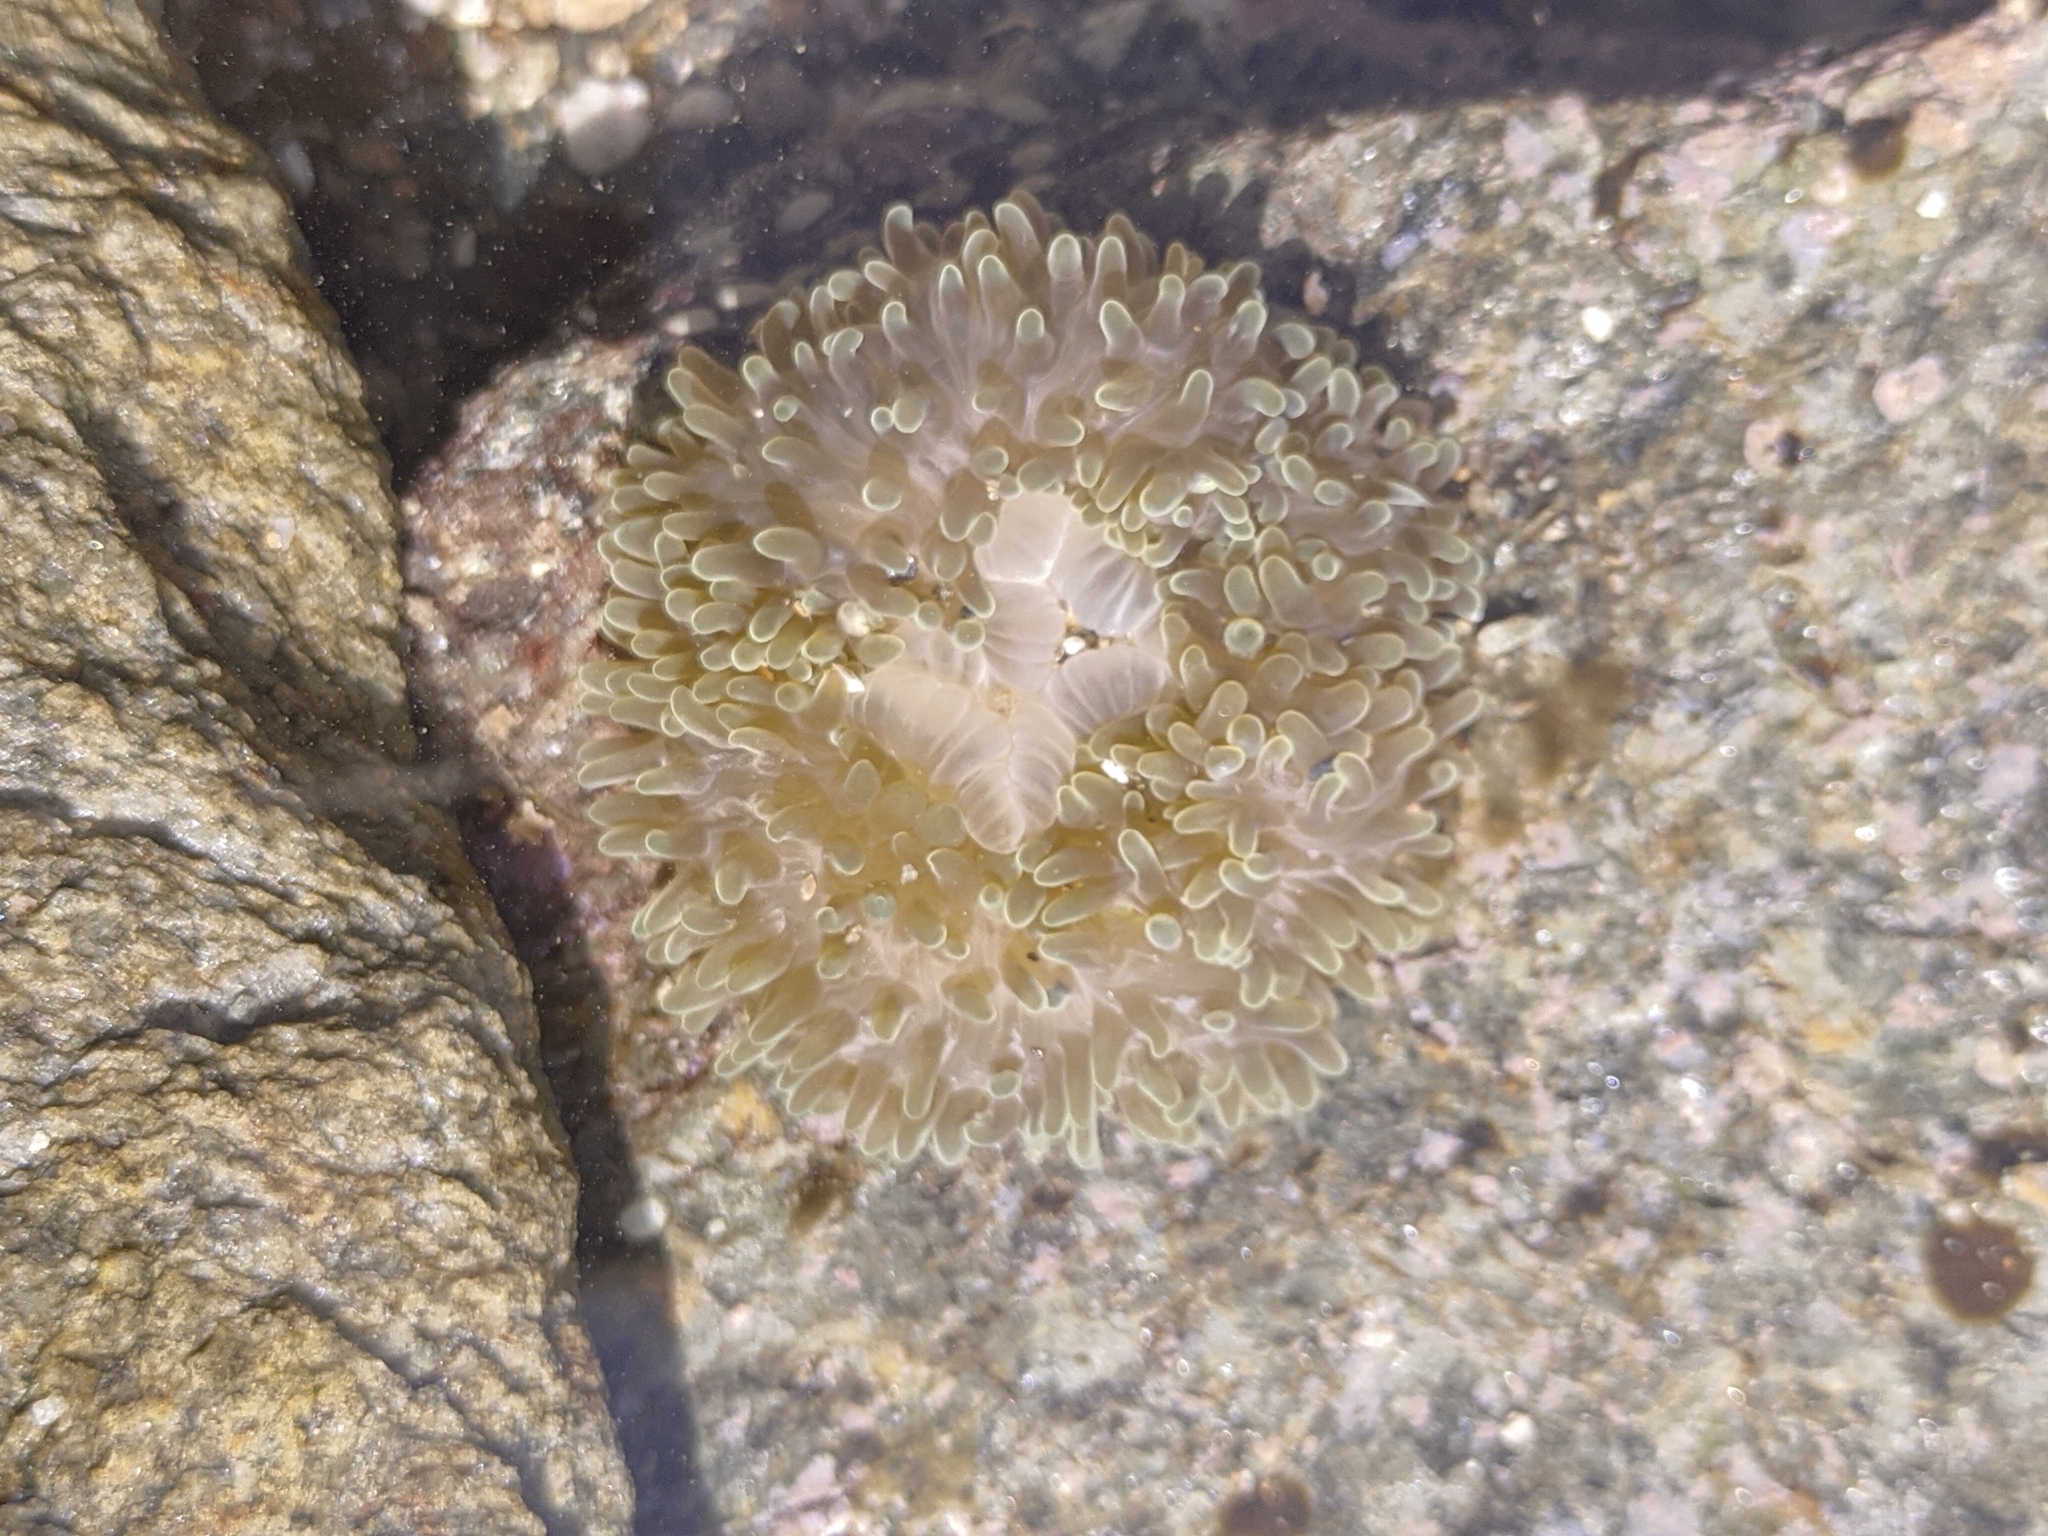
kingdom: Animalia
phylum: Cnidaria
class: Anthozoa
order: Actiniaria
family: Stichodactylidae
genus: Stichodactyla
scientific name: Stichodactyla helianthus
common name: Sun anemone
